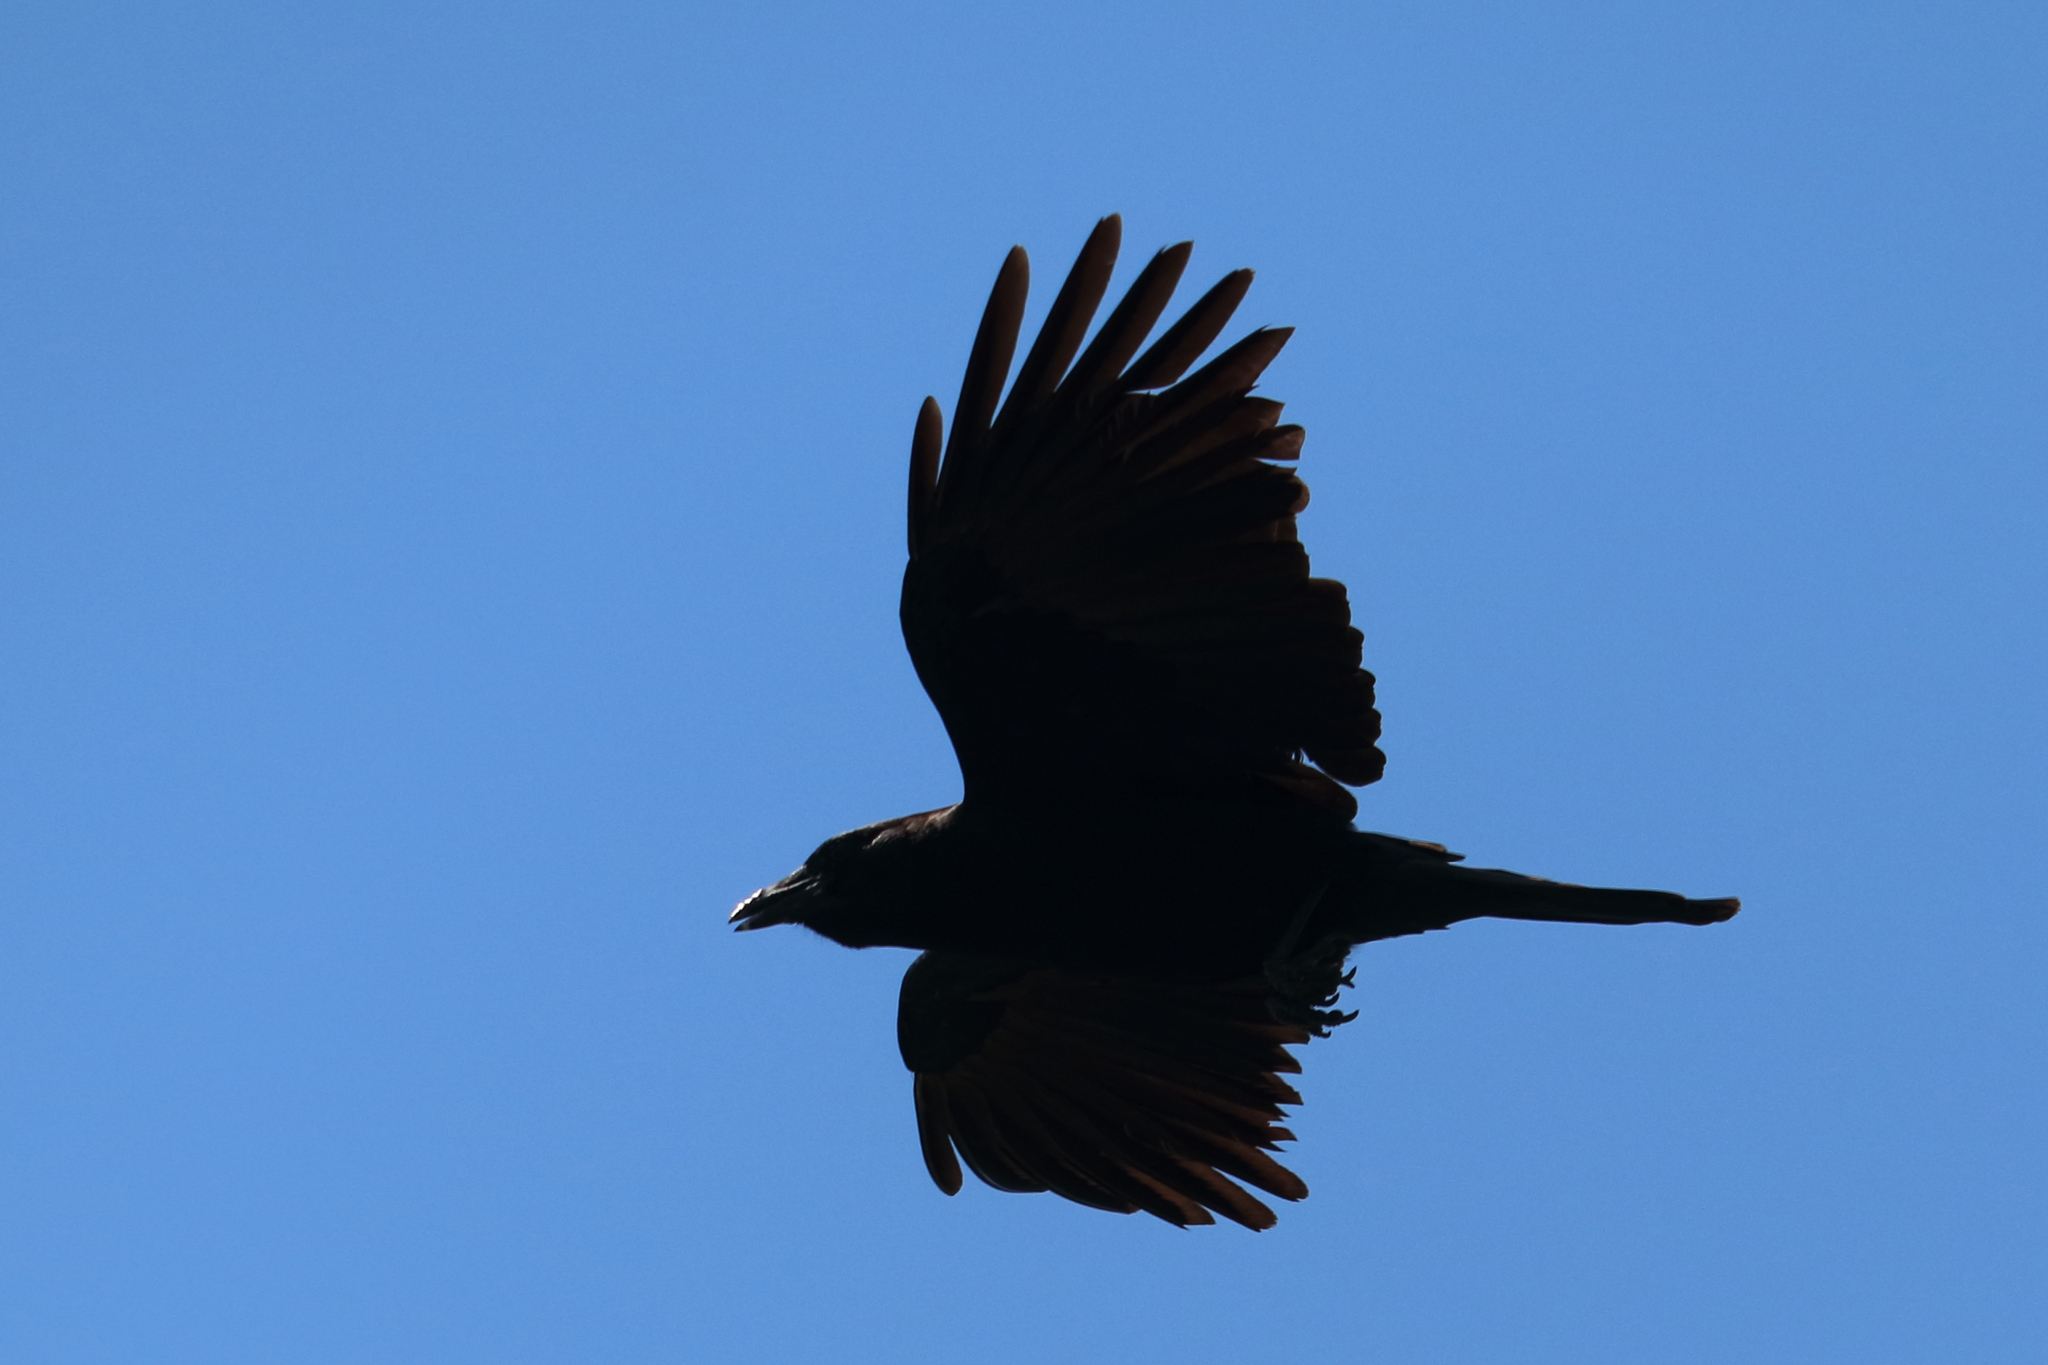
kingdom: Animalia
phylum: Chordata
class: Aves
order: Passeriformes
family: Corvidae
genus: Corvus
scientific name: Corvus brachyrhynchos
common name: American crow
